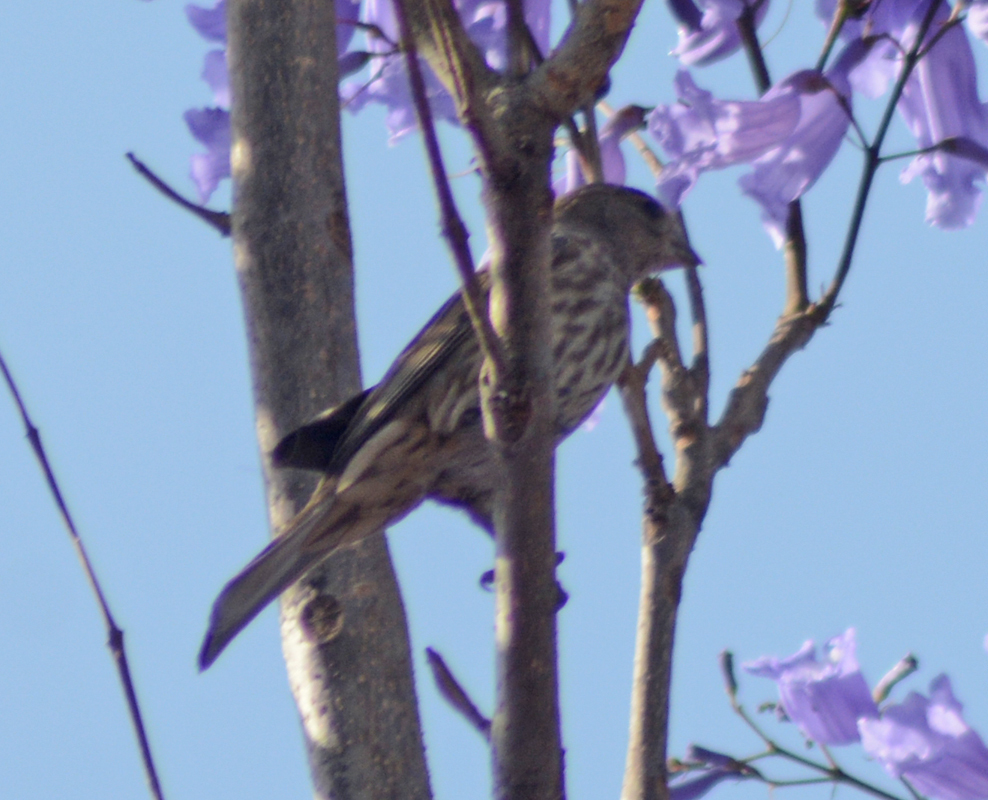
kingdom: Animalia
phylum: Chordata
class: Aves
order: Passeriformes
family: Fringillidae
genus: Haemorhous
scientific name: Haemorhous mexicanus
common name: House finch
